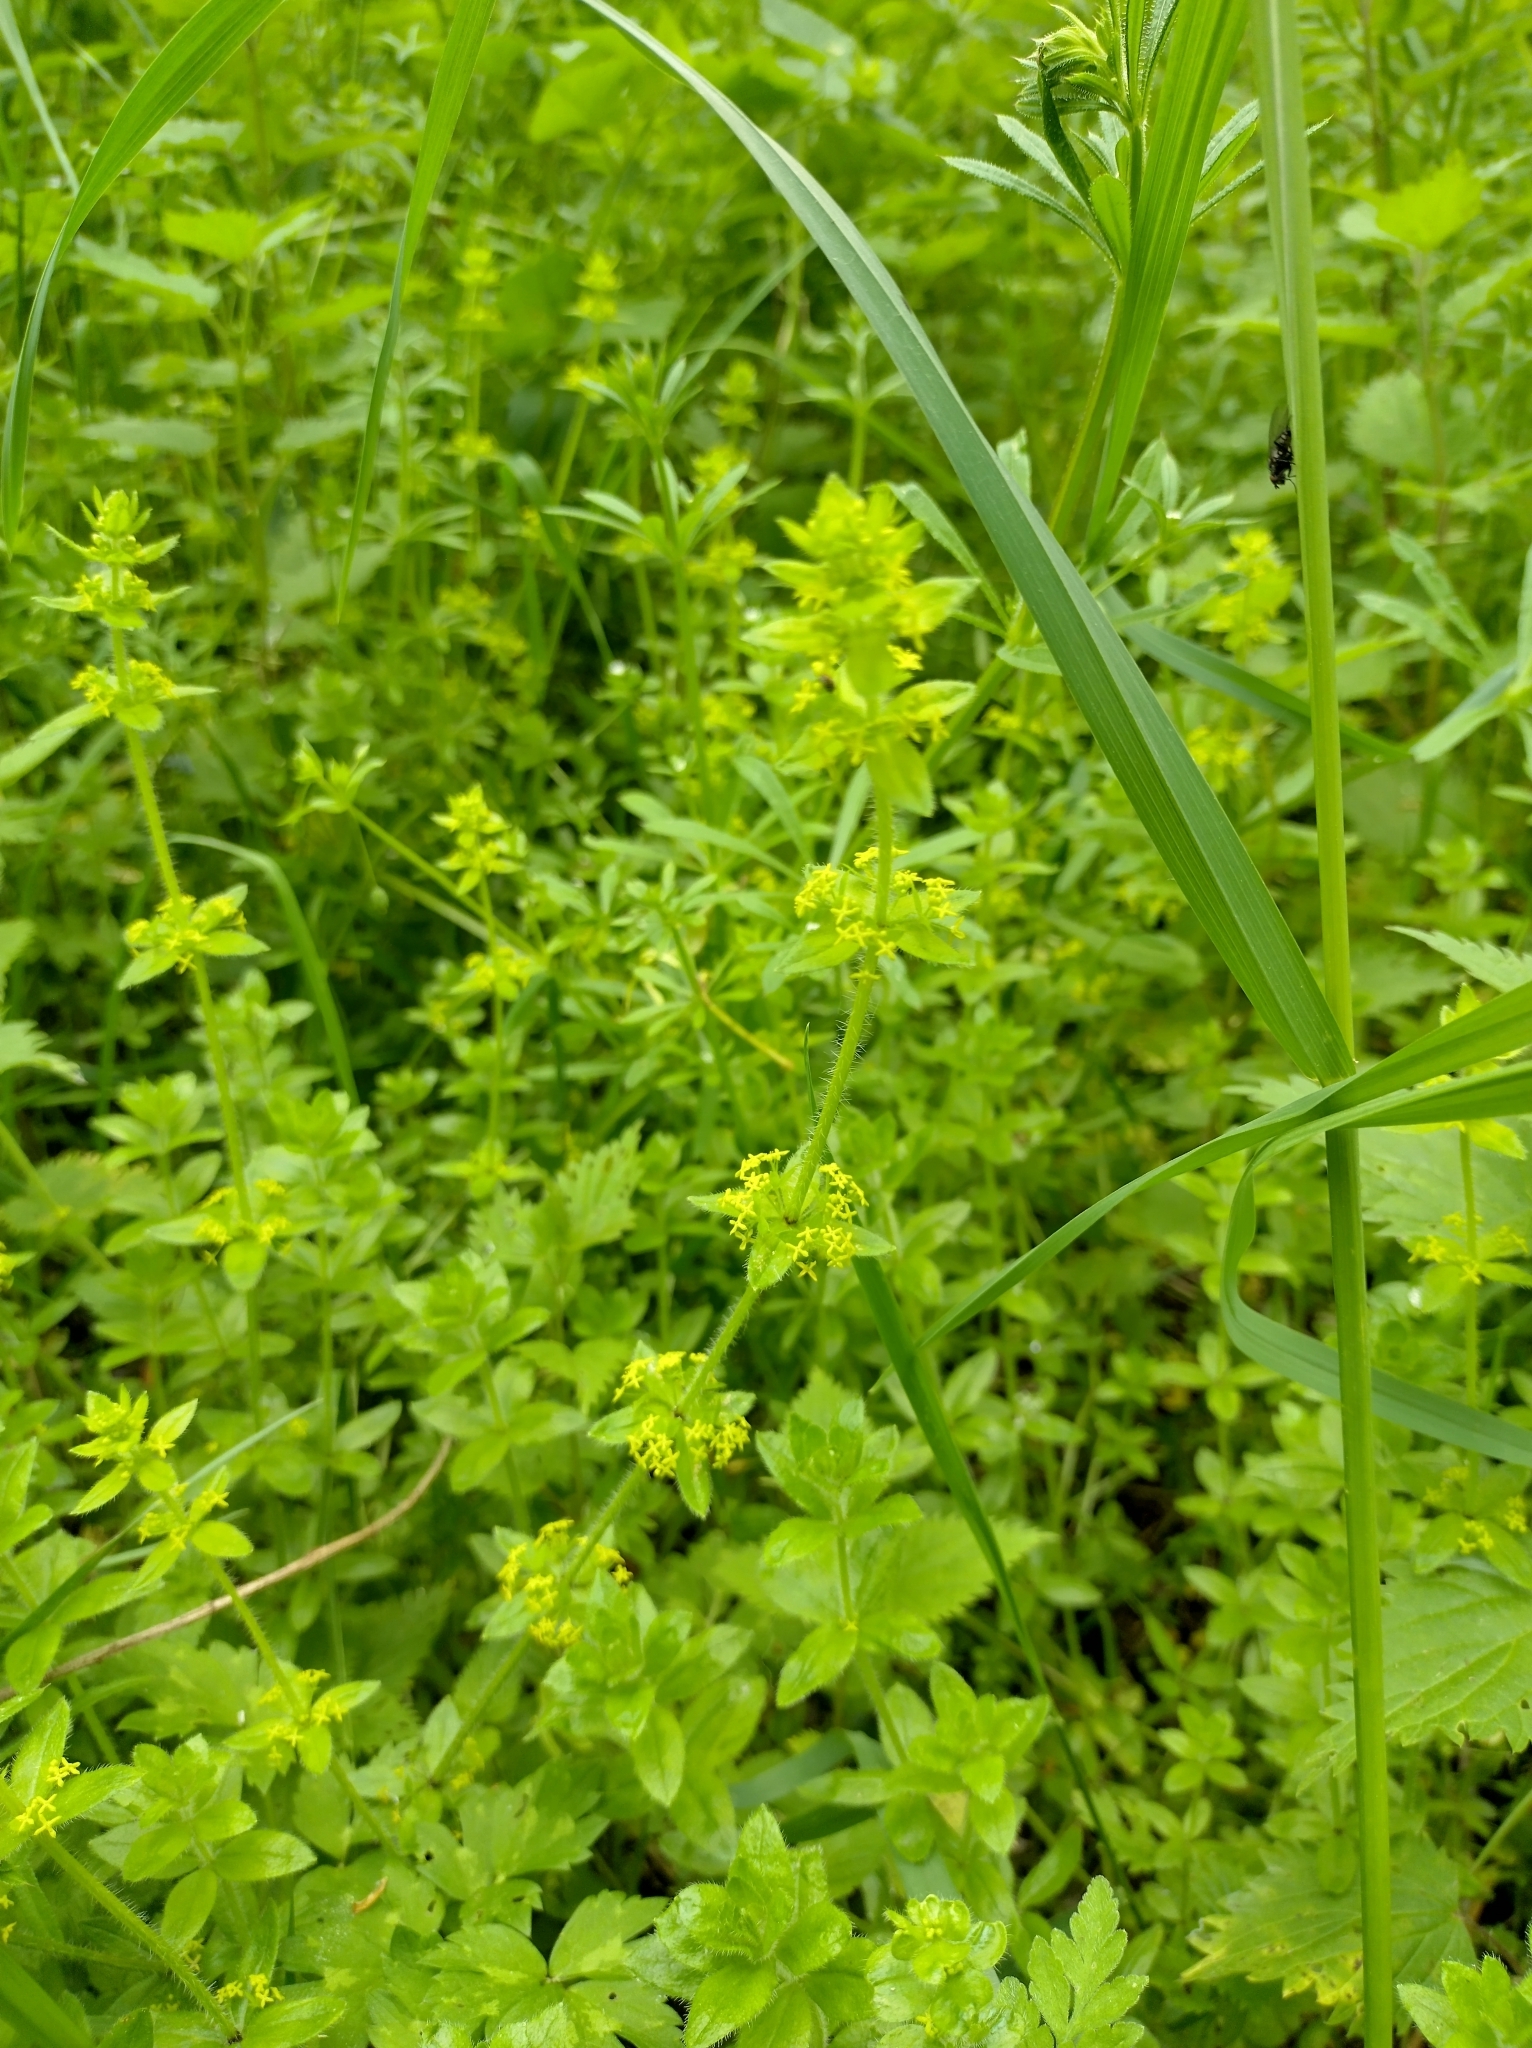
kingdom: Plantae
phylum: Tracheophyta
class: Magnoliopsida
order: Gentianales
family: Rubiaceae
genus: Cruciata
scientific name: Cruciata laevipes
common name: Crosswort
